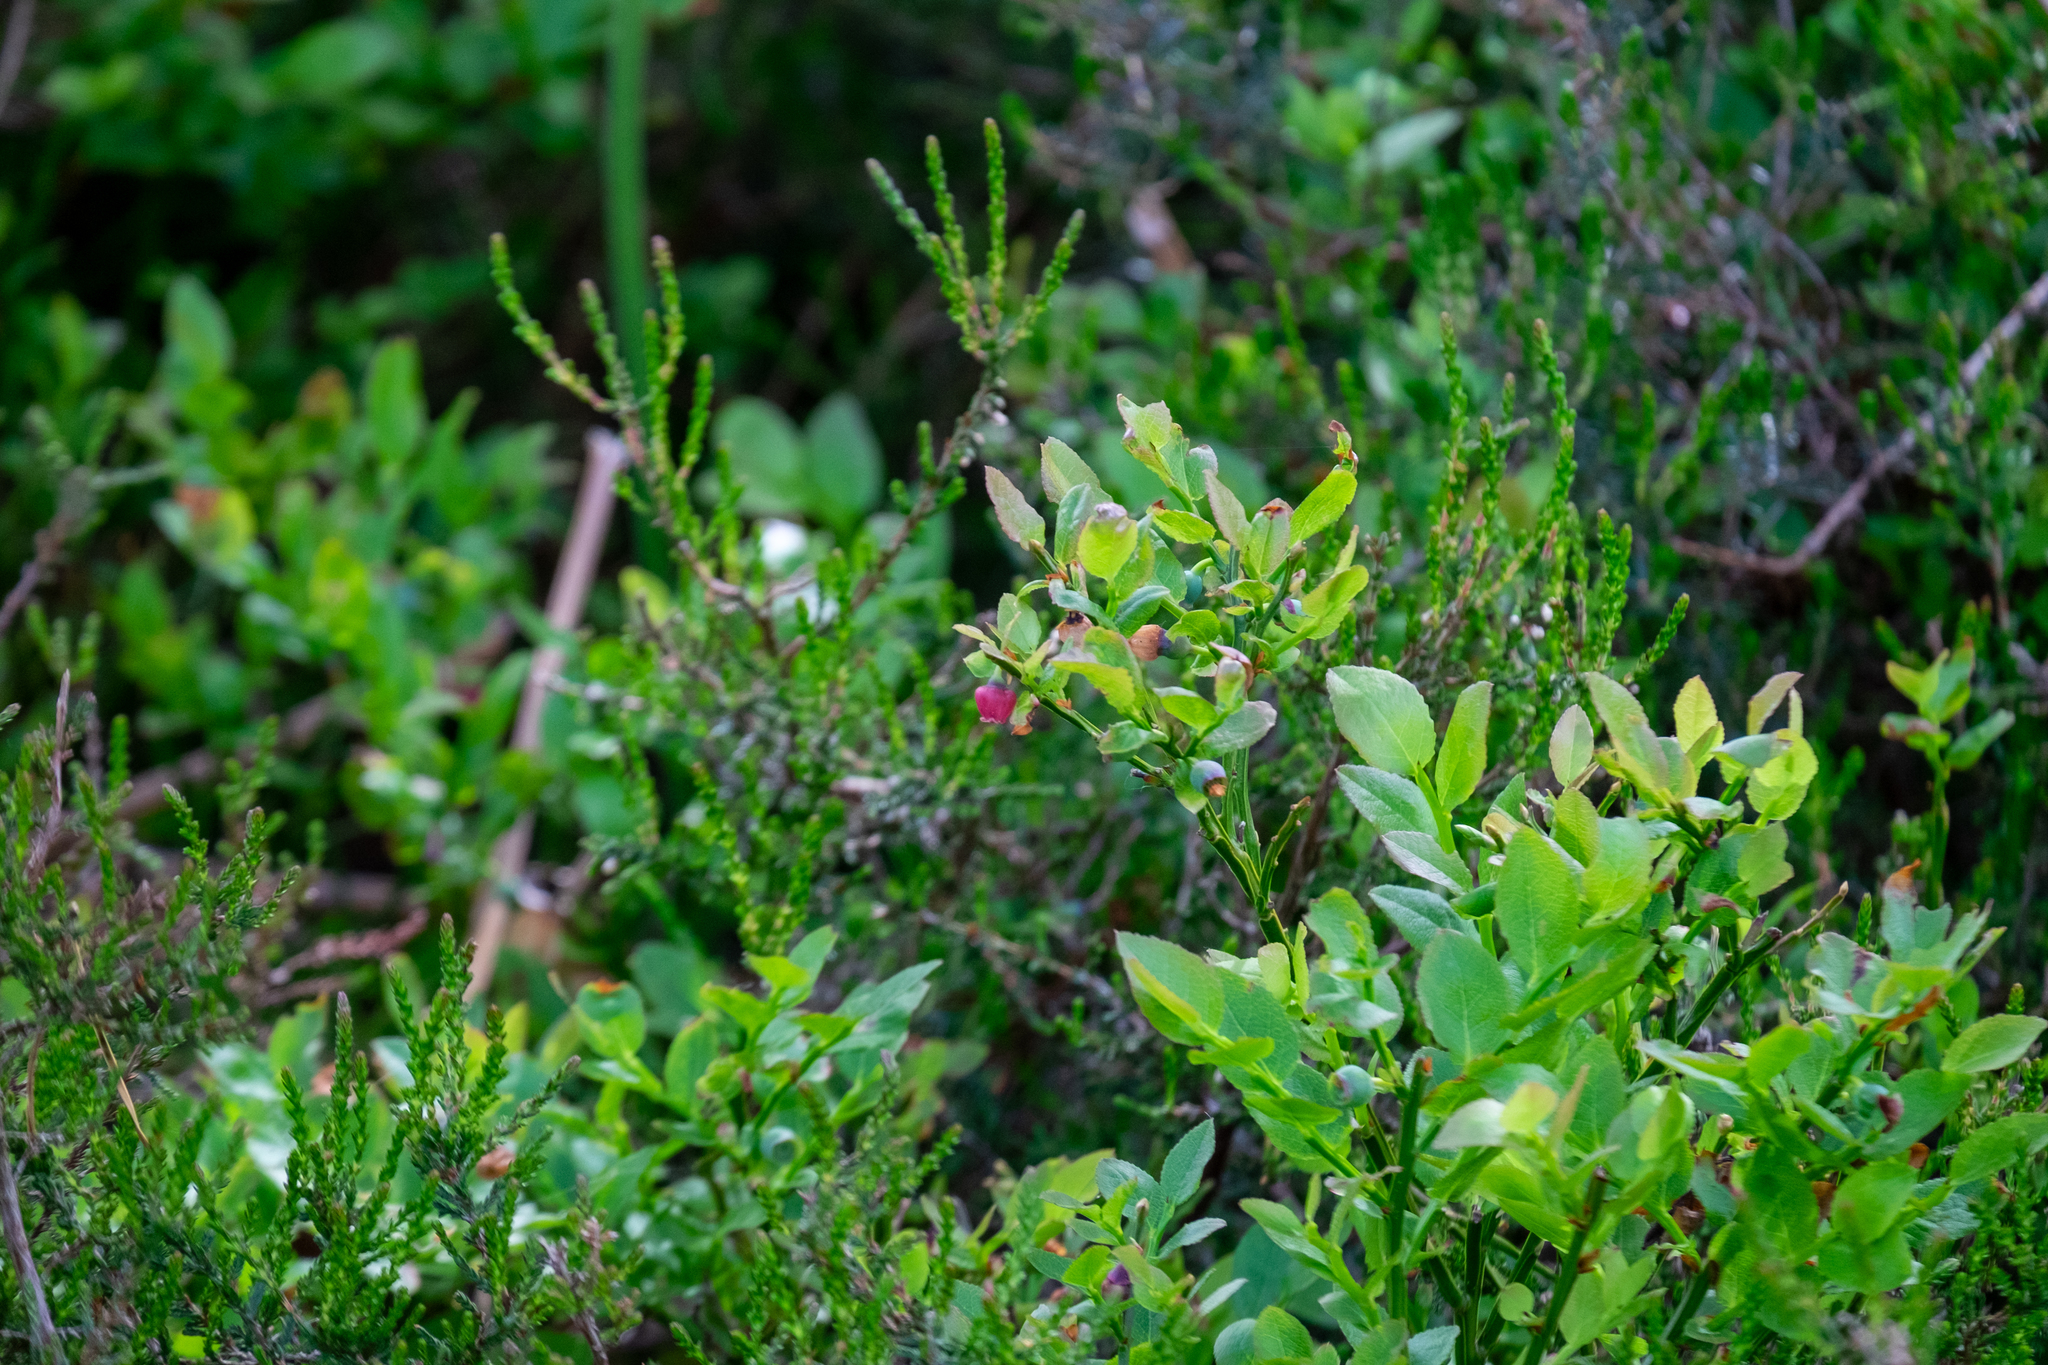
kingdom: Plantae
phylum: Tracheophyta
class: Magnoliopsida
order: Ericales
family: Ericaceae
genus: Vaccinium
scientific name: Vaccinium myrtillus
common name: Bilberry
